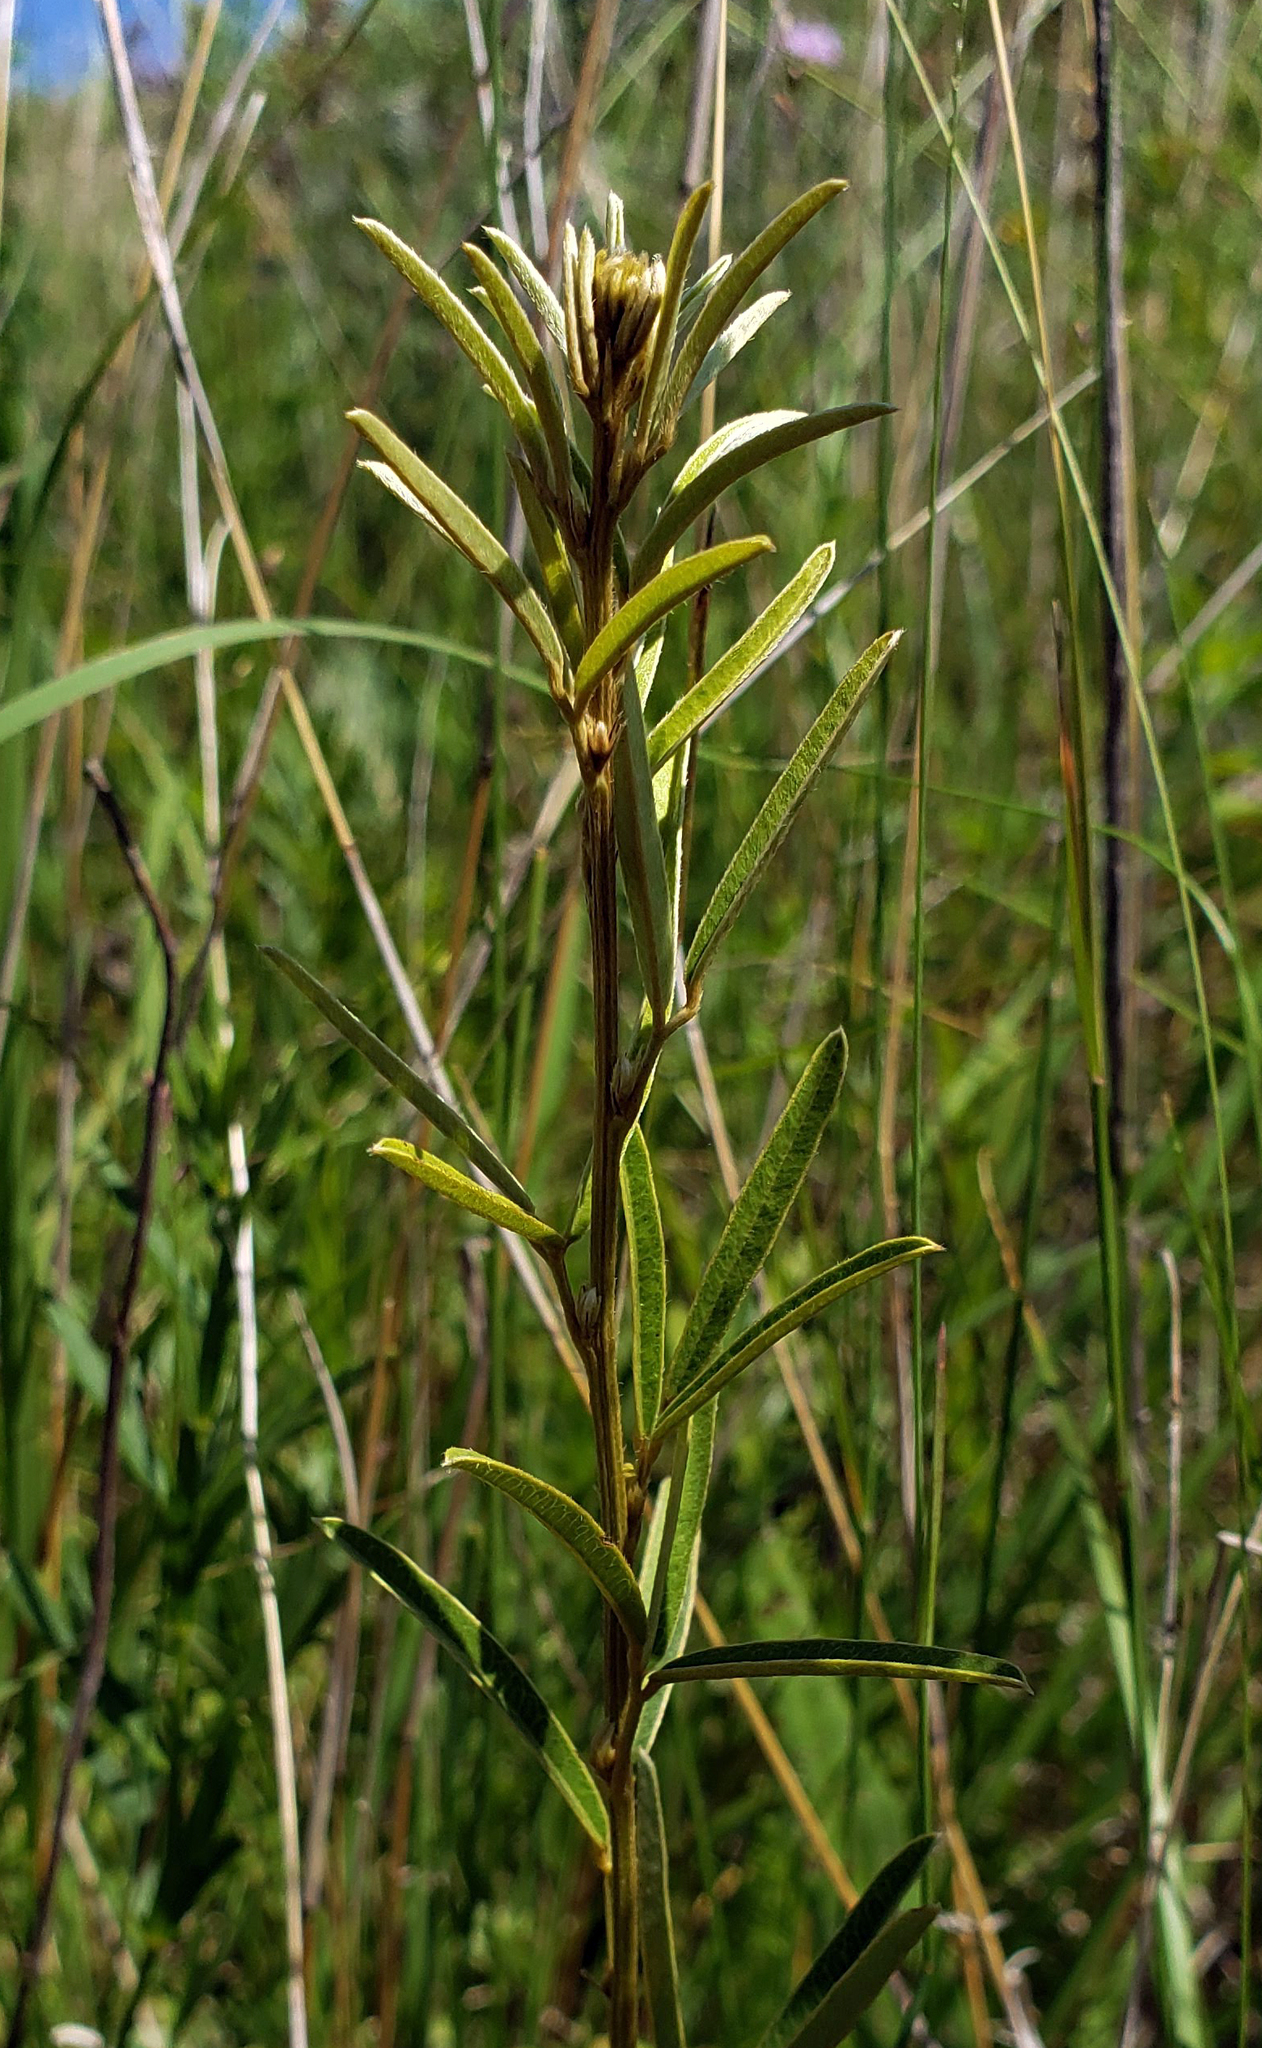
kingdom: Plantae
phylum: Tracheophyta
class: Magnoliopsida
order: Fabales
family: Fabaceae
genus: Lespedeza
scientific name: Lespedeza leptostachya
